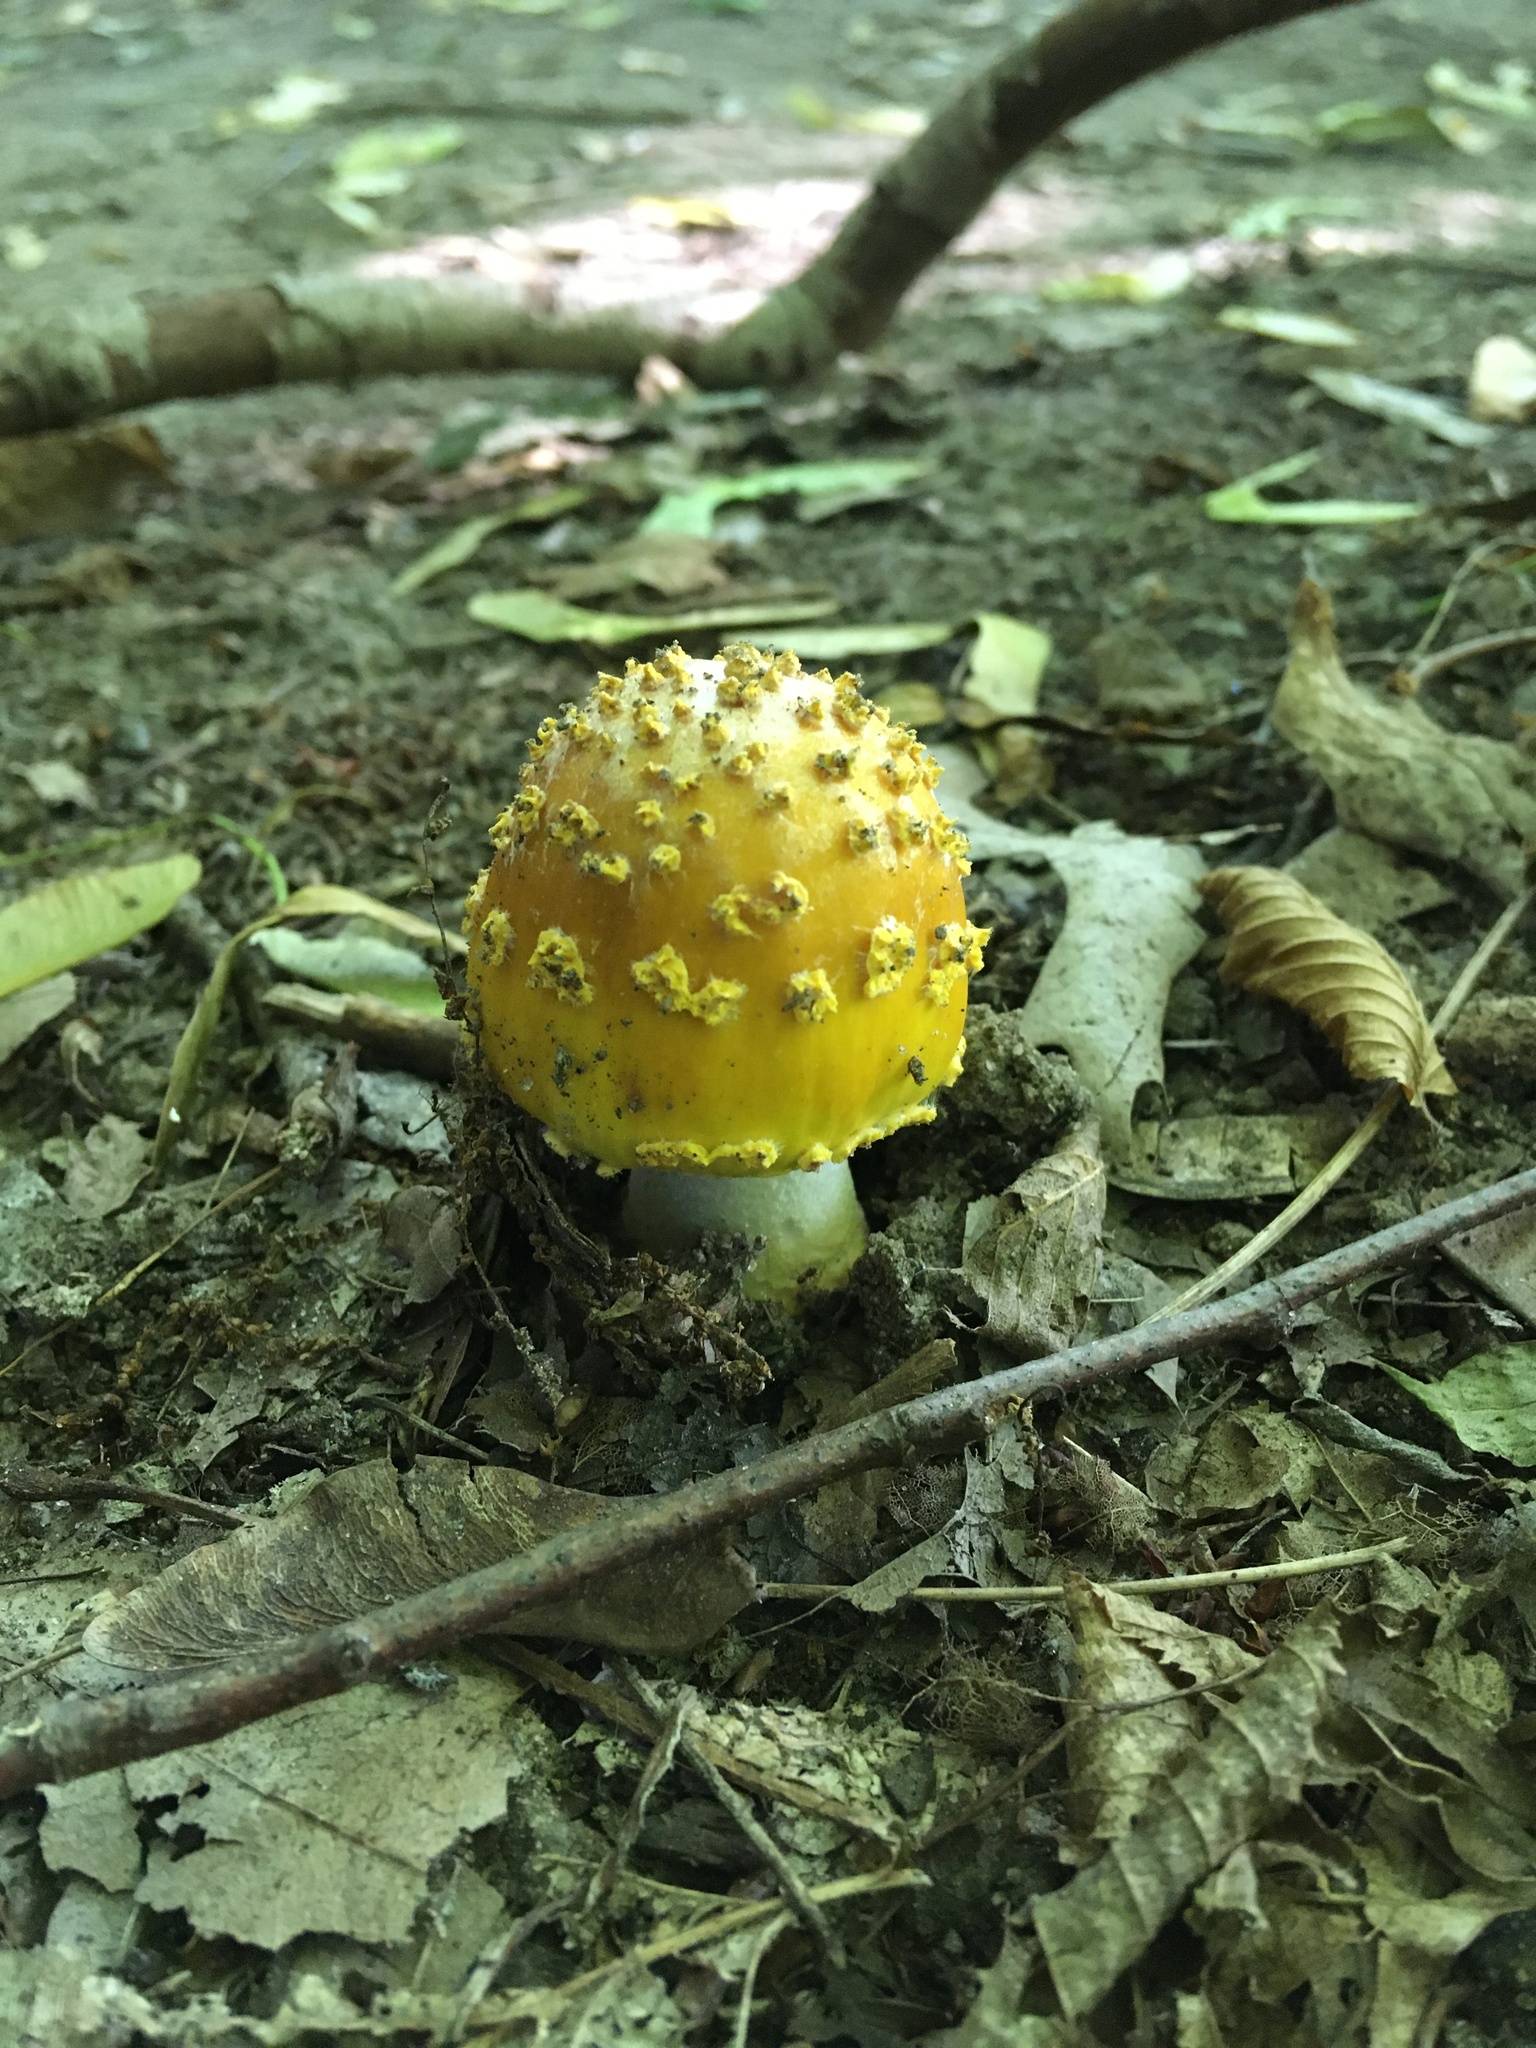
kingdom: Fungi
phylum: Basidiomycota
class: Agaricomycetes
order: Agaricales
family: Amanitaceae
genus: Amanita
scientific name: Amanita flavorubens
